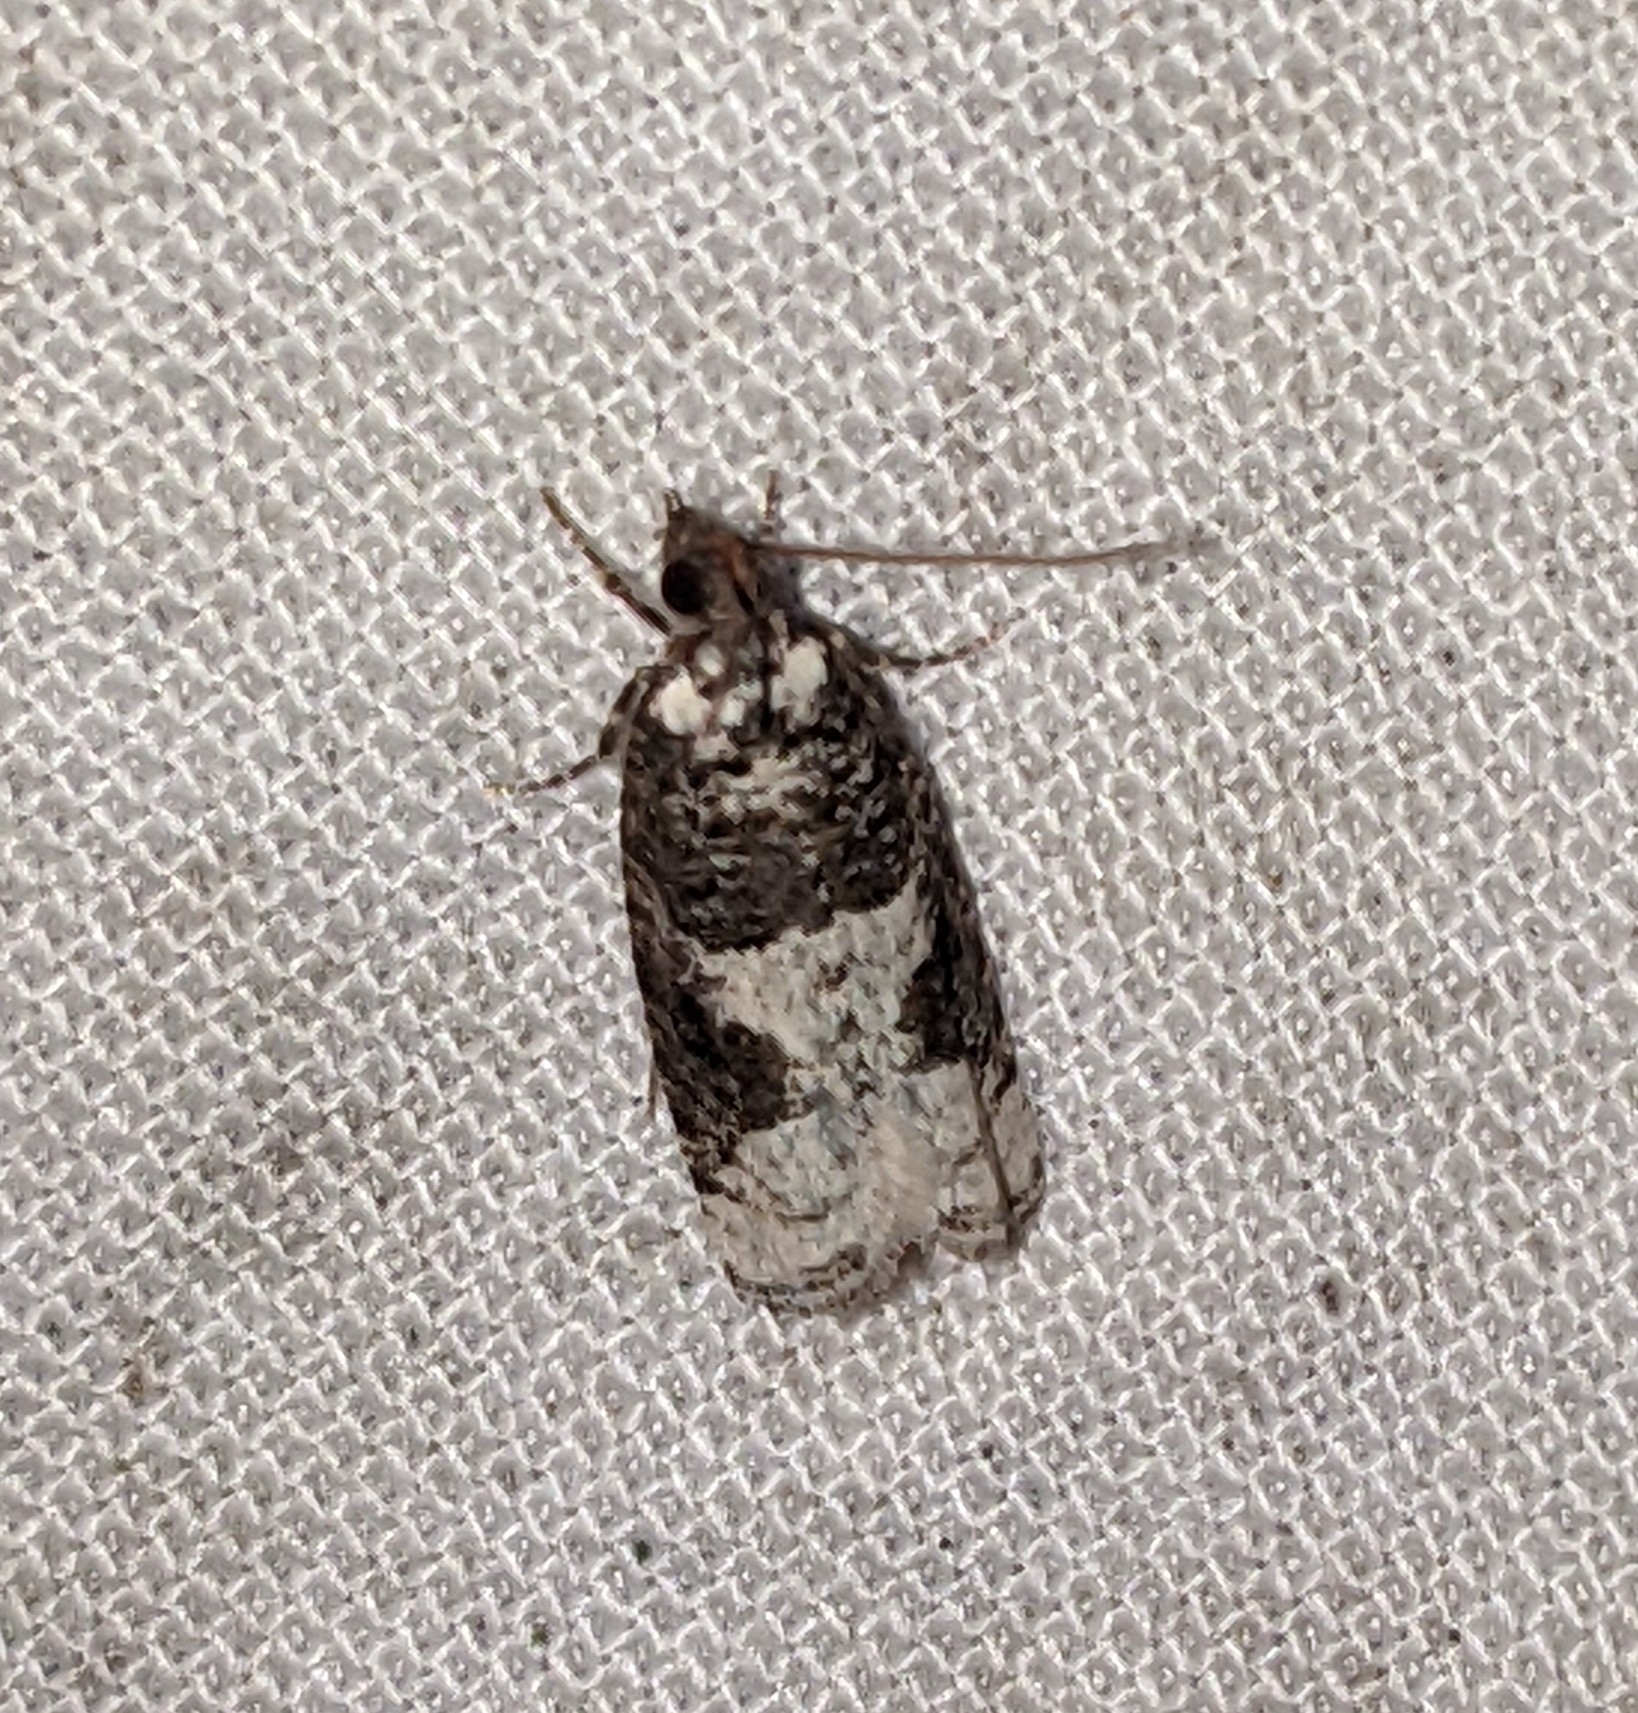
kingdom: Animalia
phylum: Arthropoda
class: Insecta
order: Lepidoptera
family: Tortricidae
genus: Epinotia
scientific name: Epinotia lomonana
